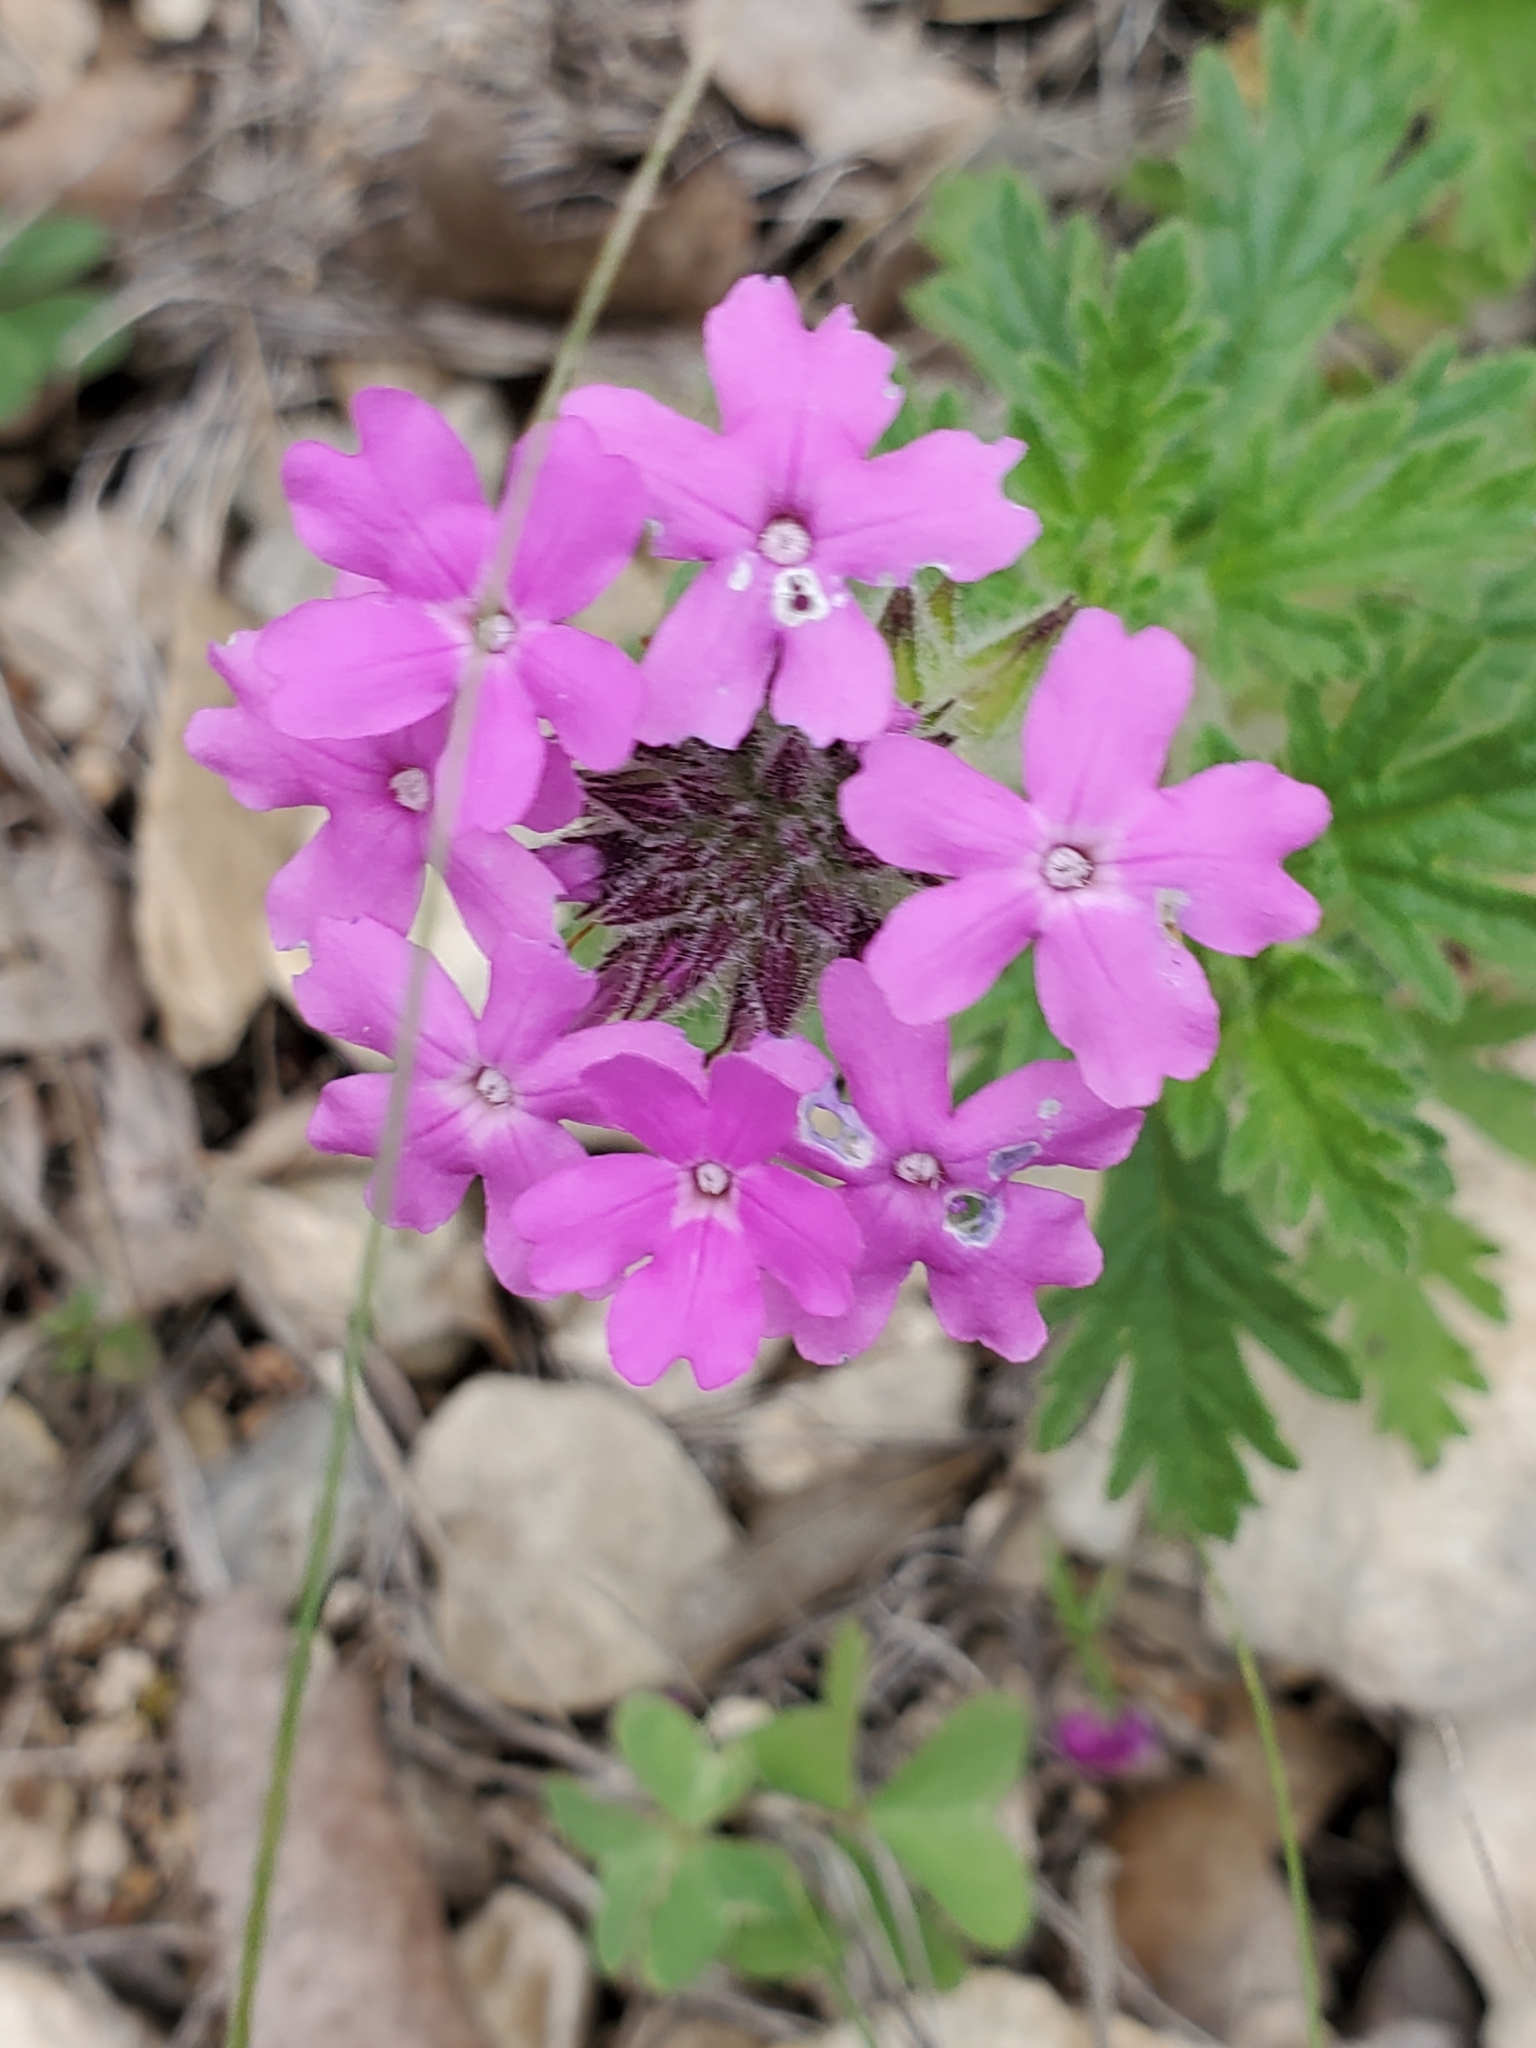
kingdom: Plantae
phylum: Tracheophyta
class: Magnoliopsida
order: Lamiales
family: Verbenaceae
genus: Verbena
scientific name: Verbena tumidula
